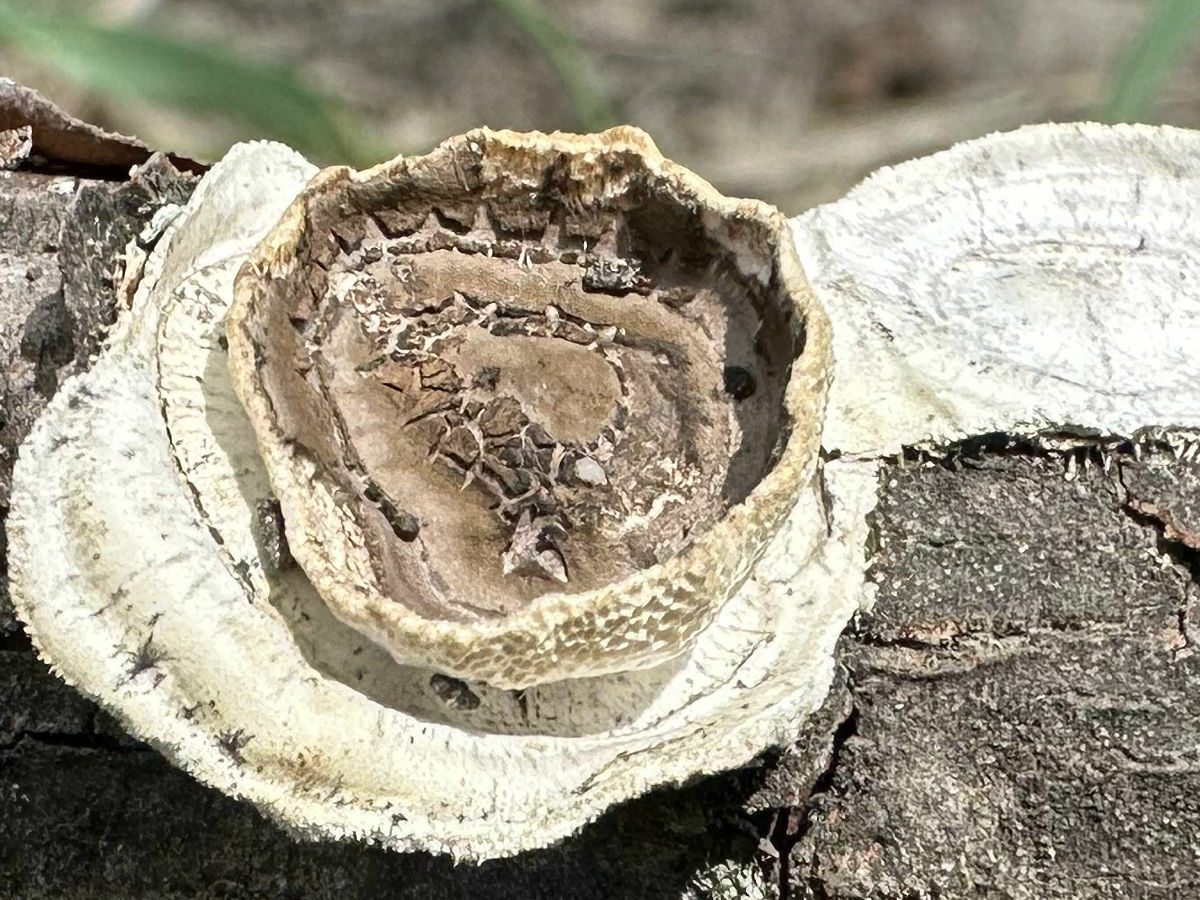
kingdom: Fungi
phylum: Basidiomycota
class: Agaricomycetes
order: Polyporales
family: Polyporaceae
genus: Poronidulus
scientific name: Poronidulus conchifer
